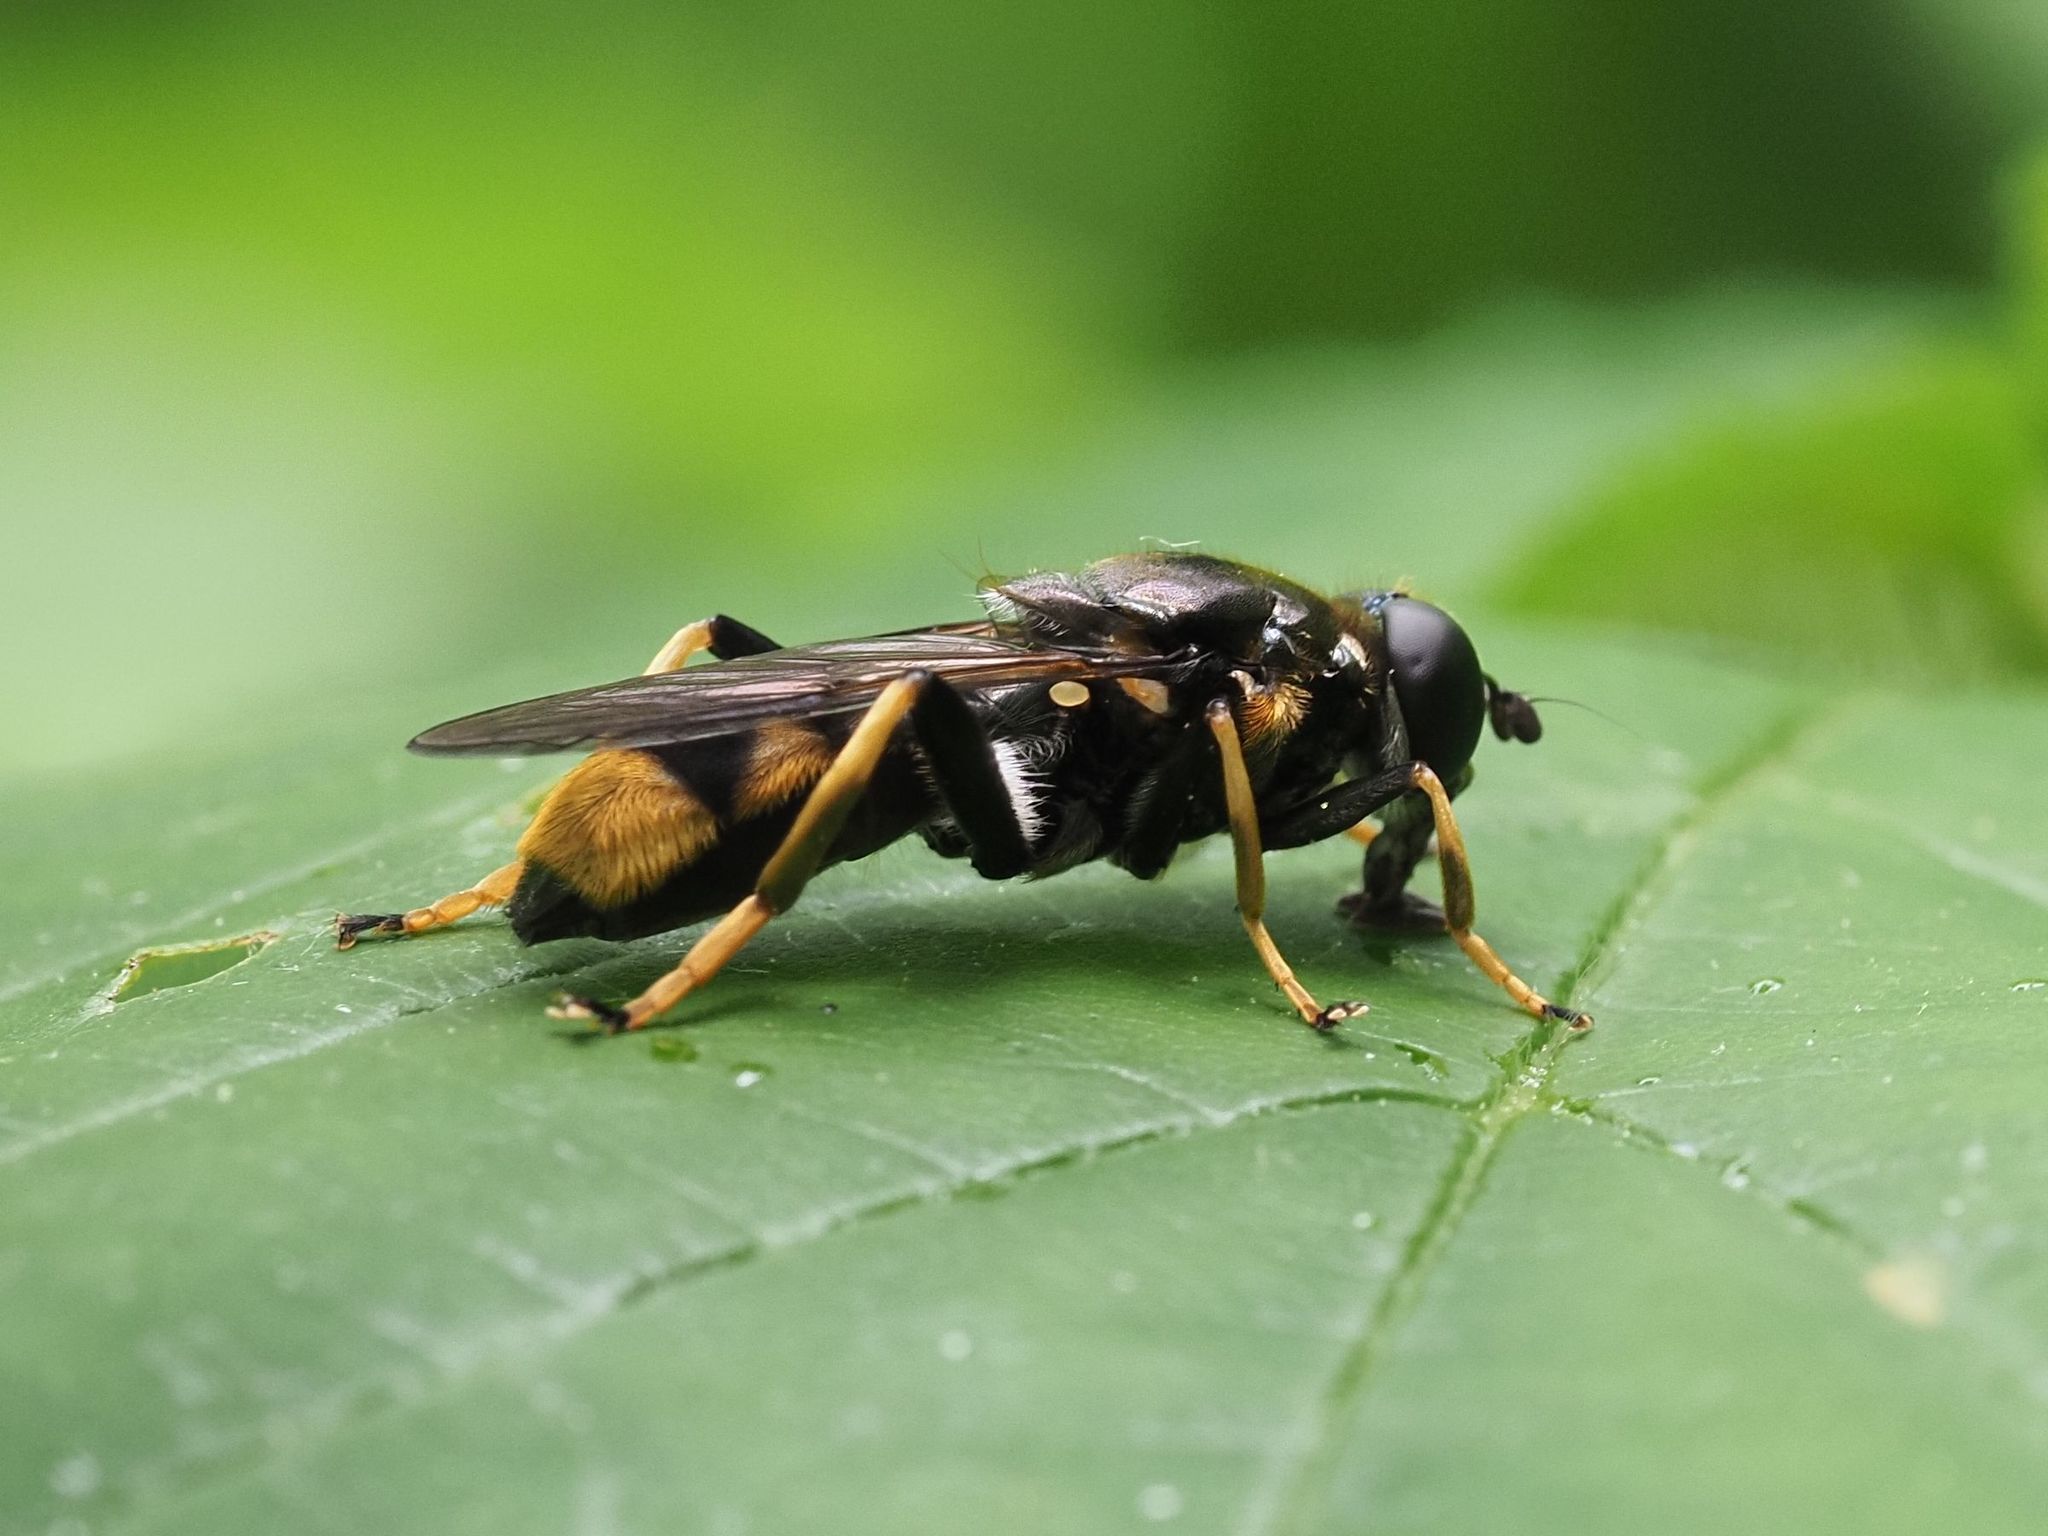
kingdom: Animalia
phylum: Arthropoda
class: Insecta
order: Diptera
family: Syrphidae
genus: Xylota
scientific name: Xylota sylvarum
